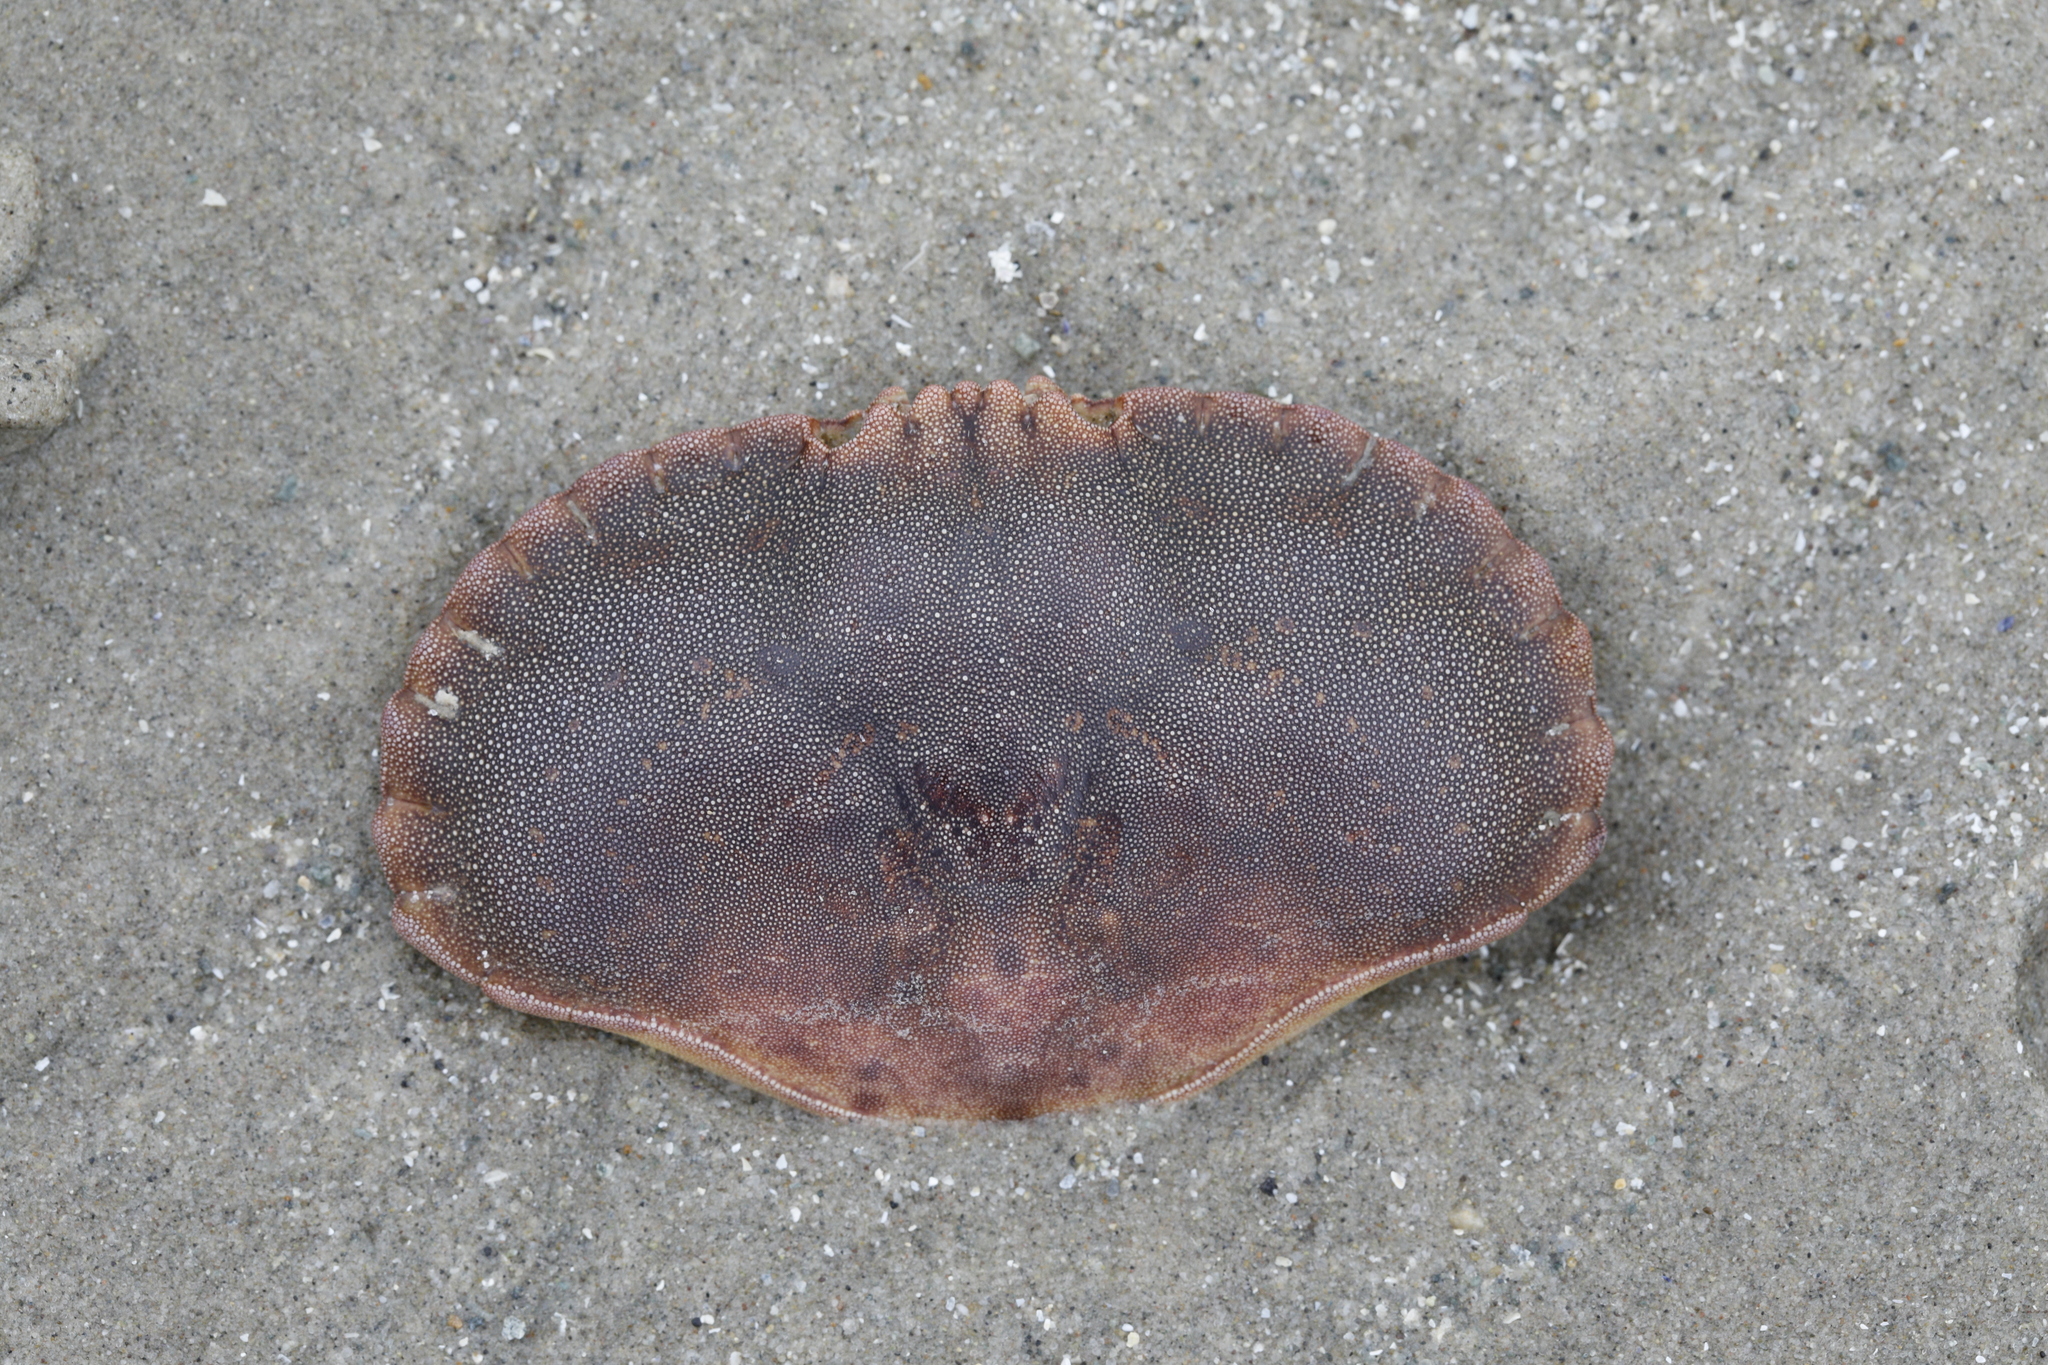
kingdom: Animalia
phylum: Arthropoda
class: Malacostraca
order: Decapoda
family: Cancridae
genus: Cancer
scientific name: Cancer pagurus
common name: Edible crab
